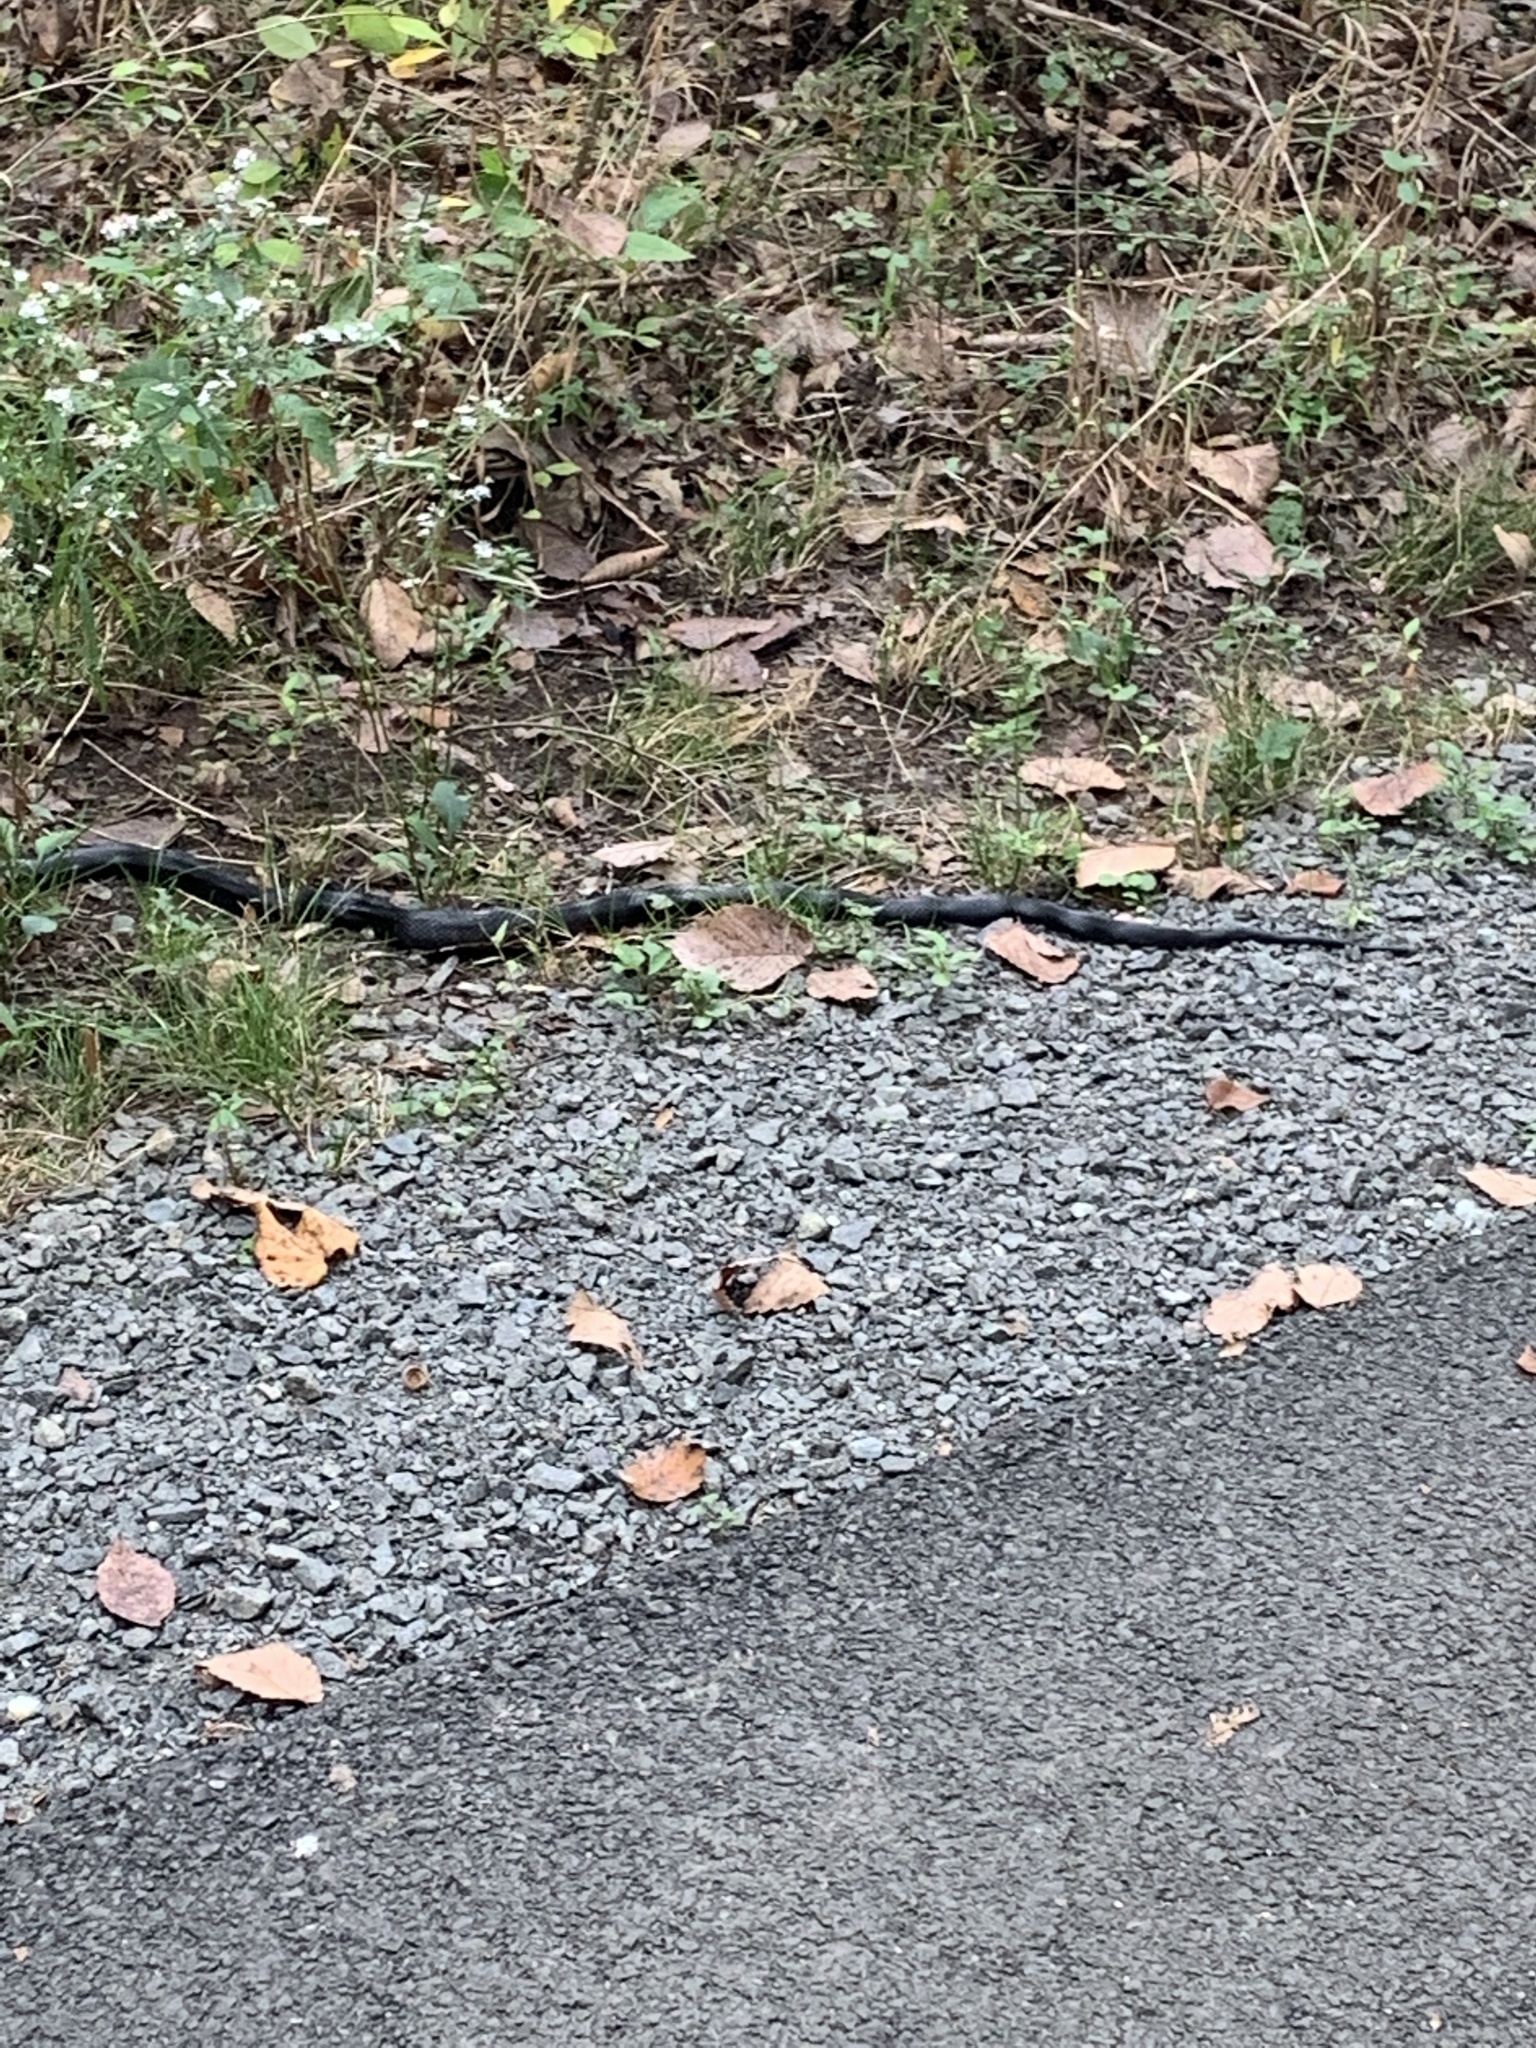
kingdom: Animalia
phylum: Chordata
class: Squamata
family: Colubridae
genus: Pantherophis
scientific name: Pantherophis alleghaniensis
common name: Eastern rat snake
